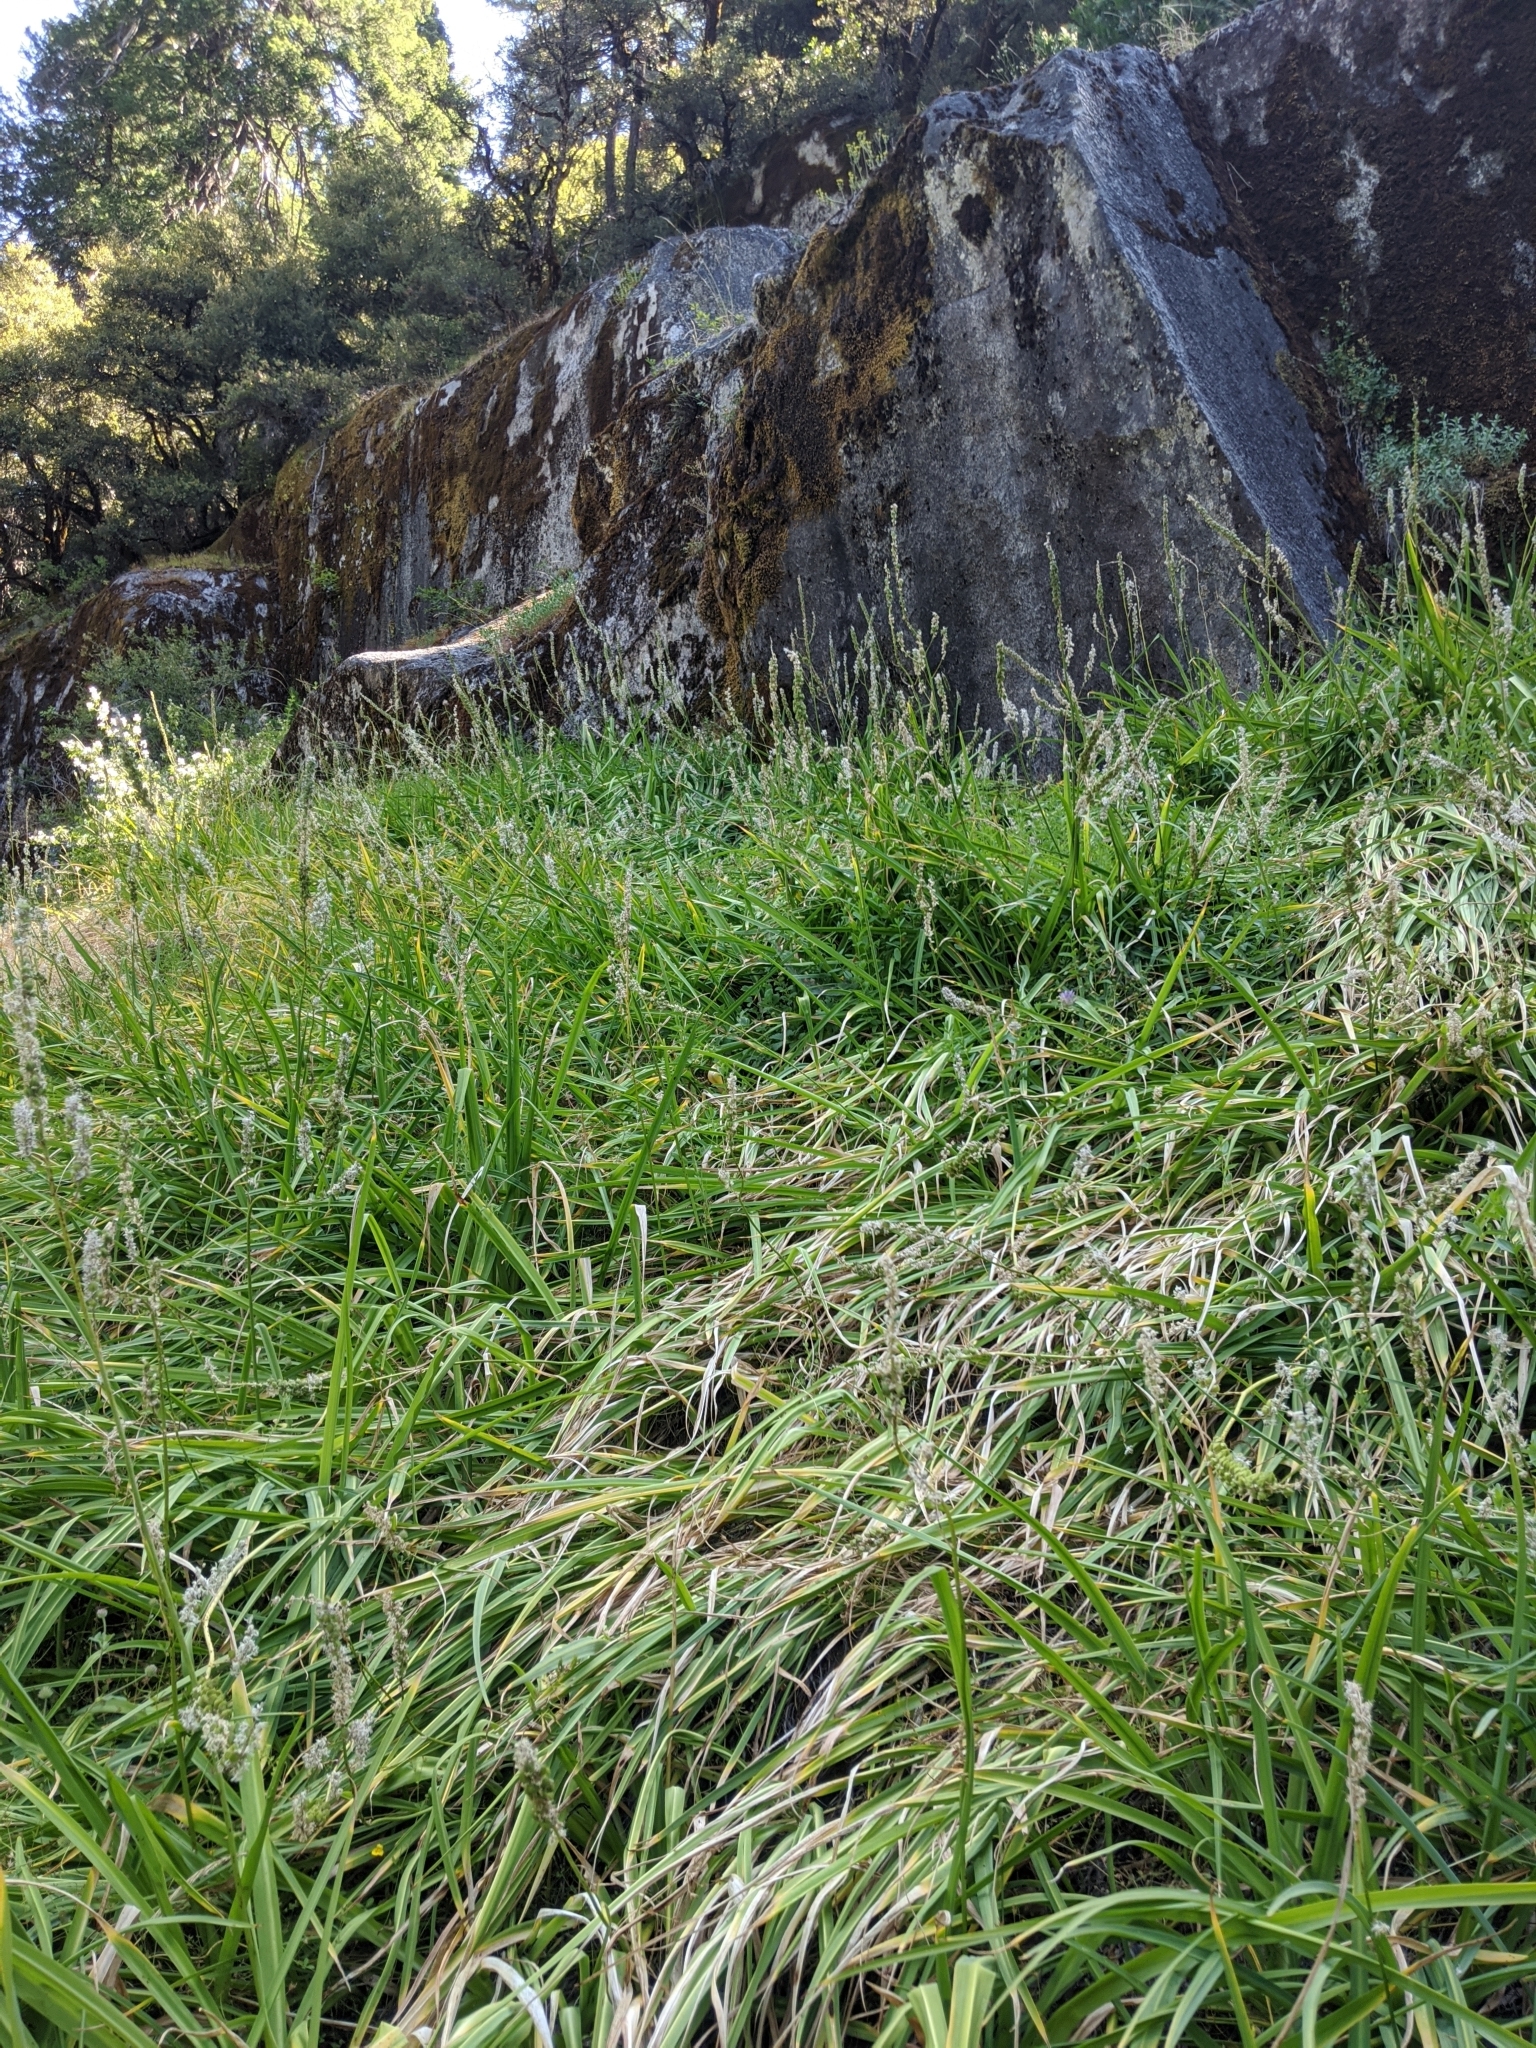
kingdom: Plantae
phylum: Tracheophyta
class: Liliopsida
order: Asparagales
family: Asparagaceae
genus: Hastingsia
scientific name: Hastingsia alba
